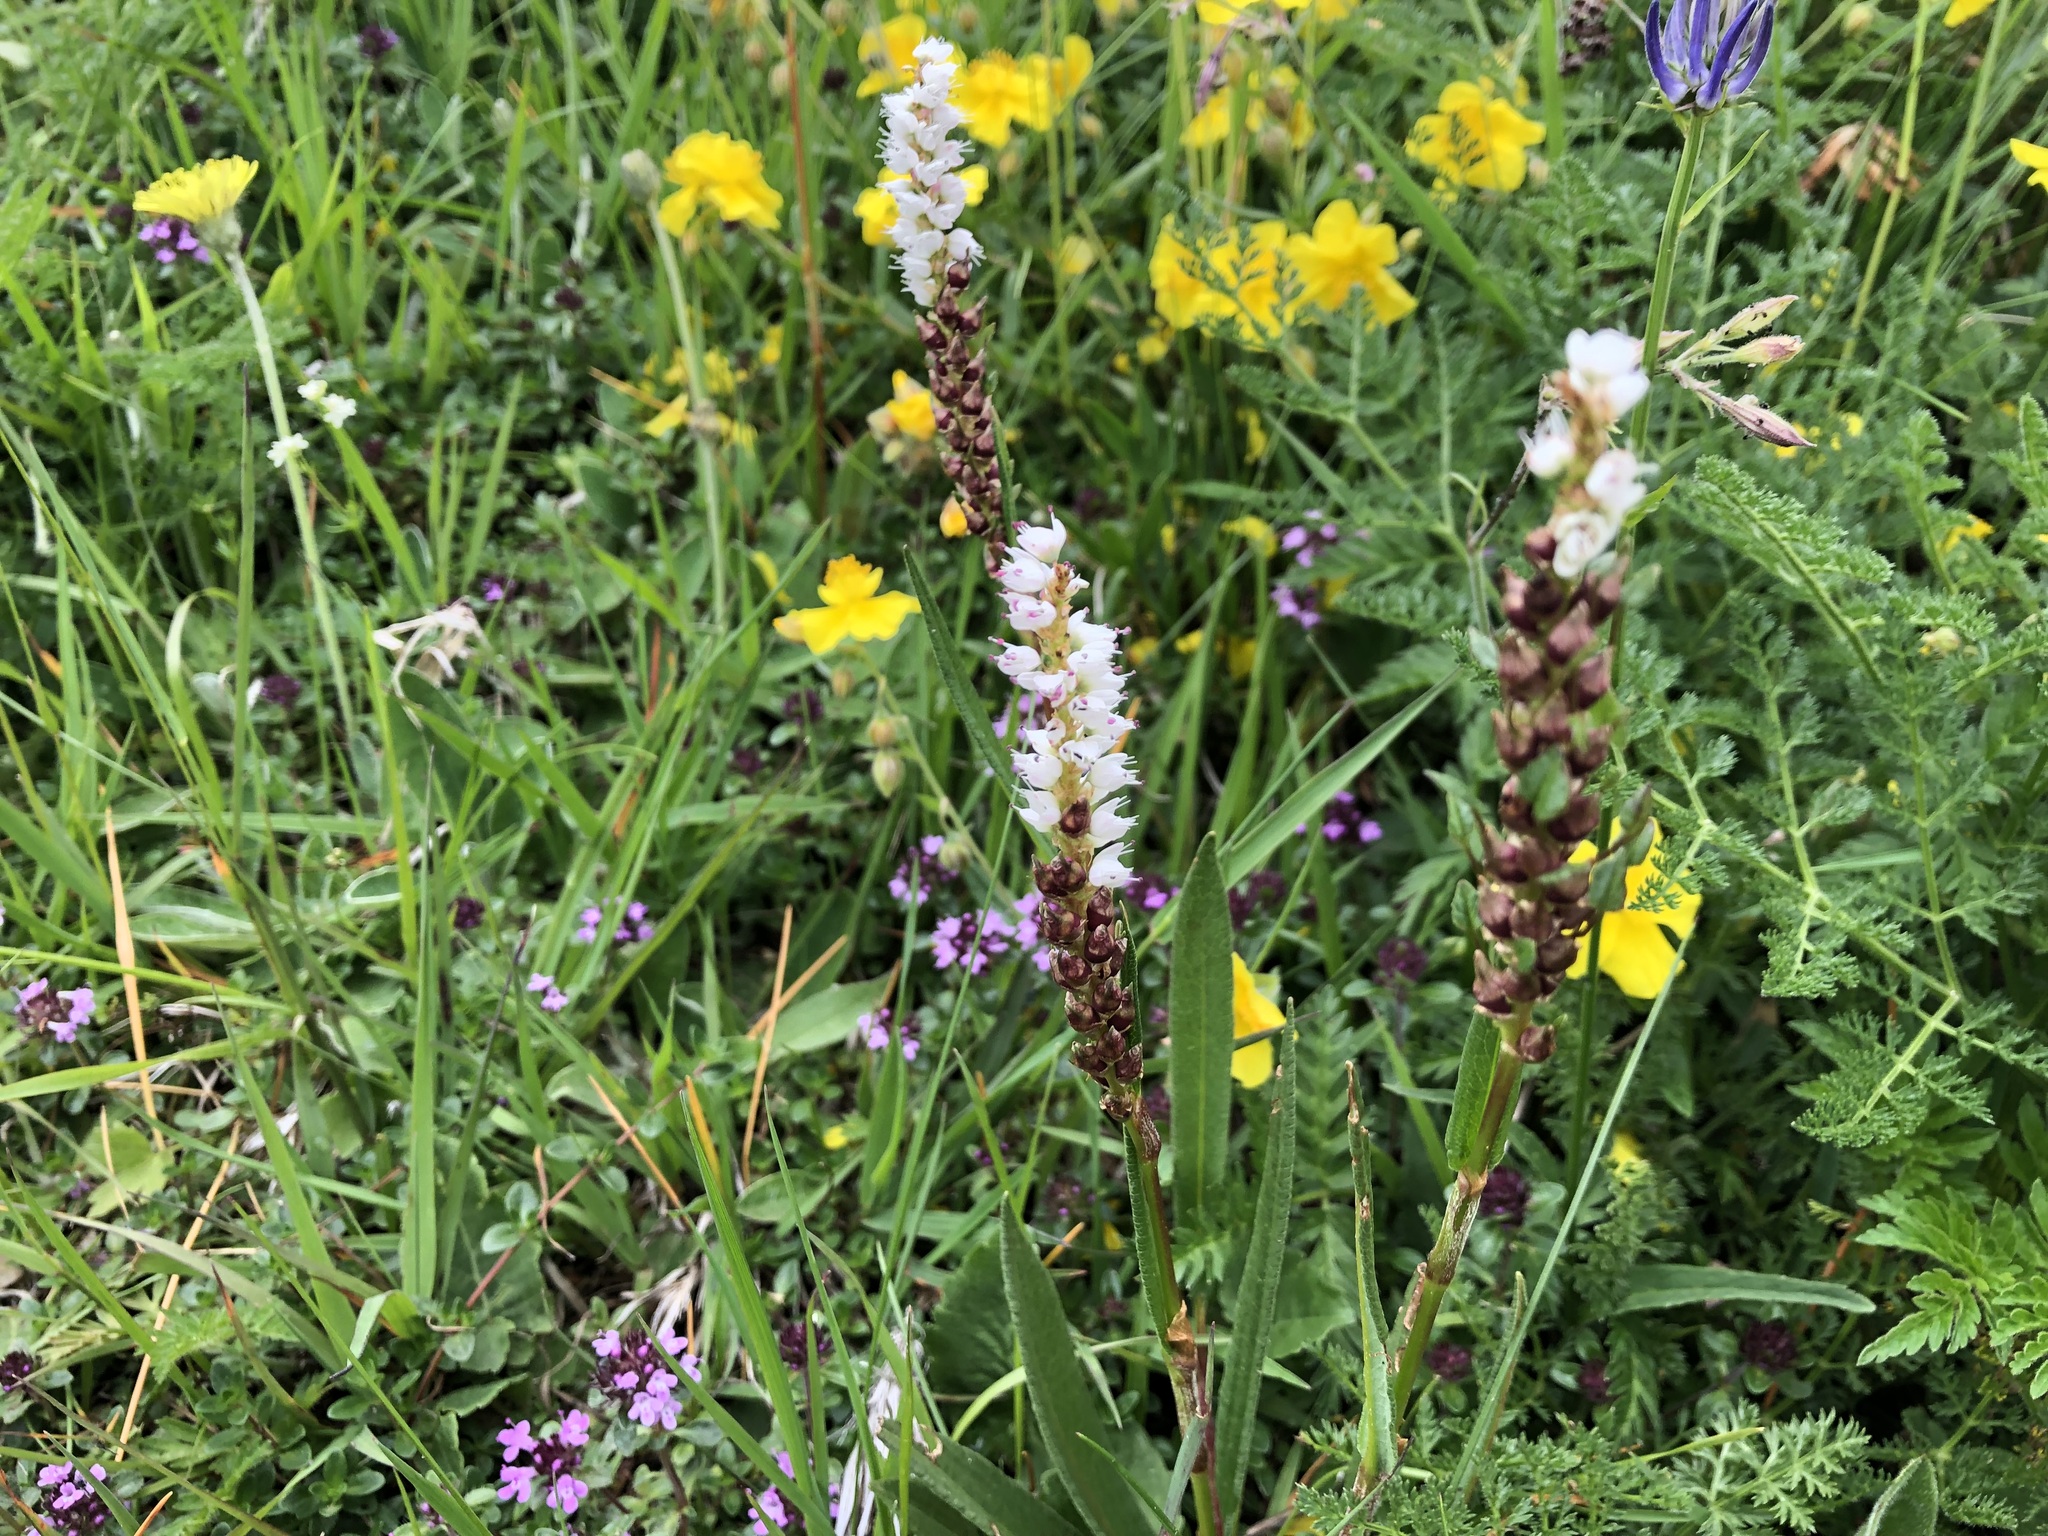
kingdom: Plantae
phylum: Tracheophyta
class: Magnoliopsida
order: Caryophyllales
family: Polygonaceae
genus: Bistorta
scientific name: Bistorta vivipara
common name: Alpine bistort
